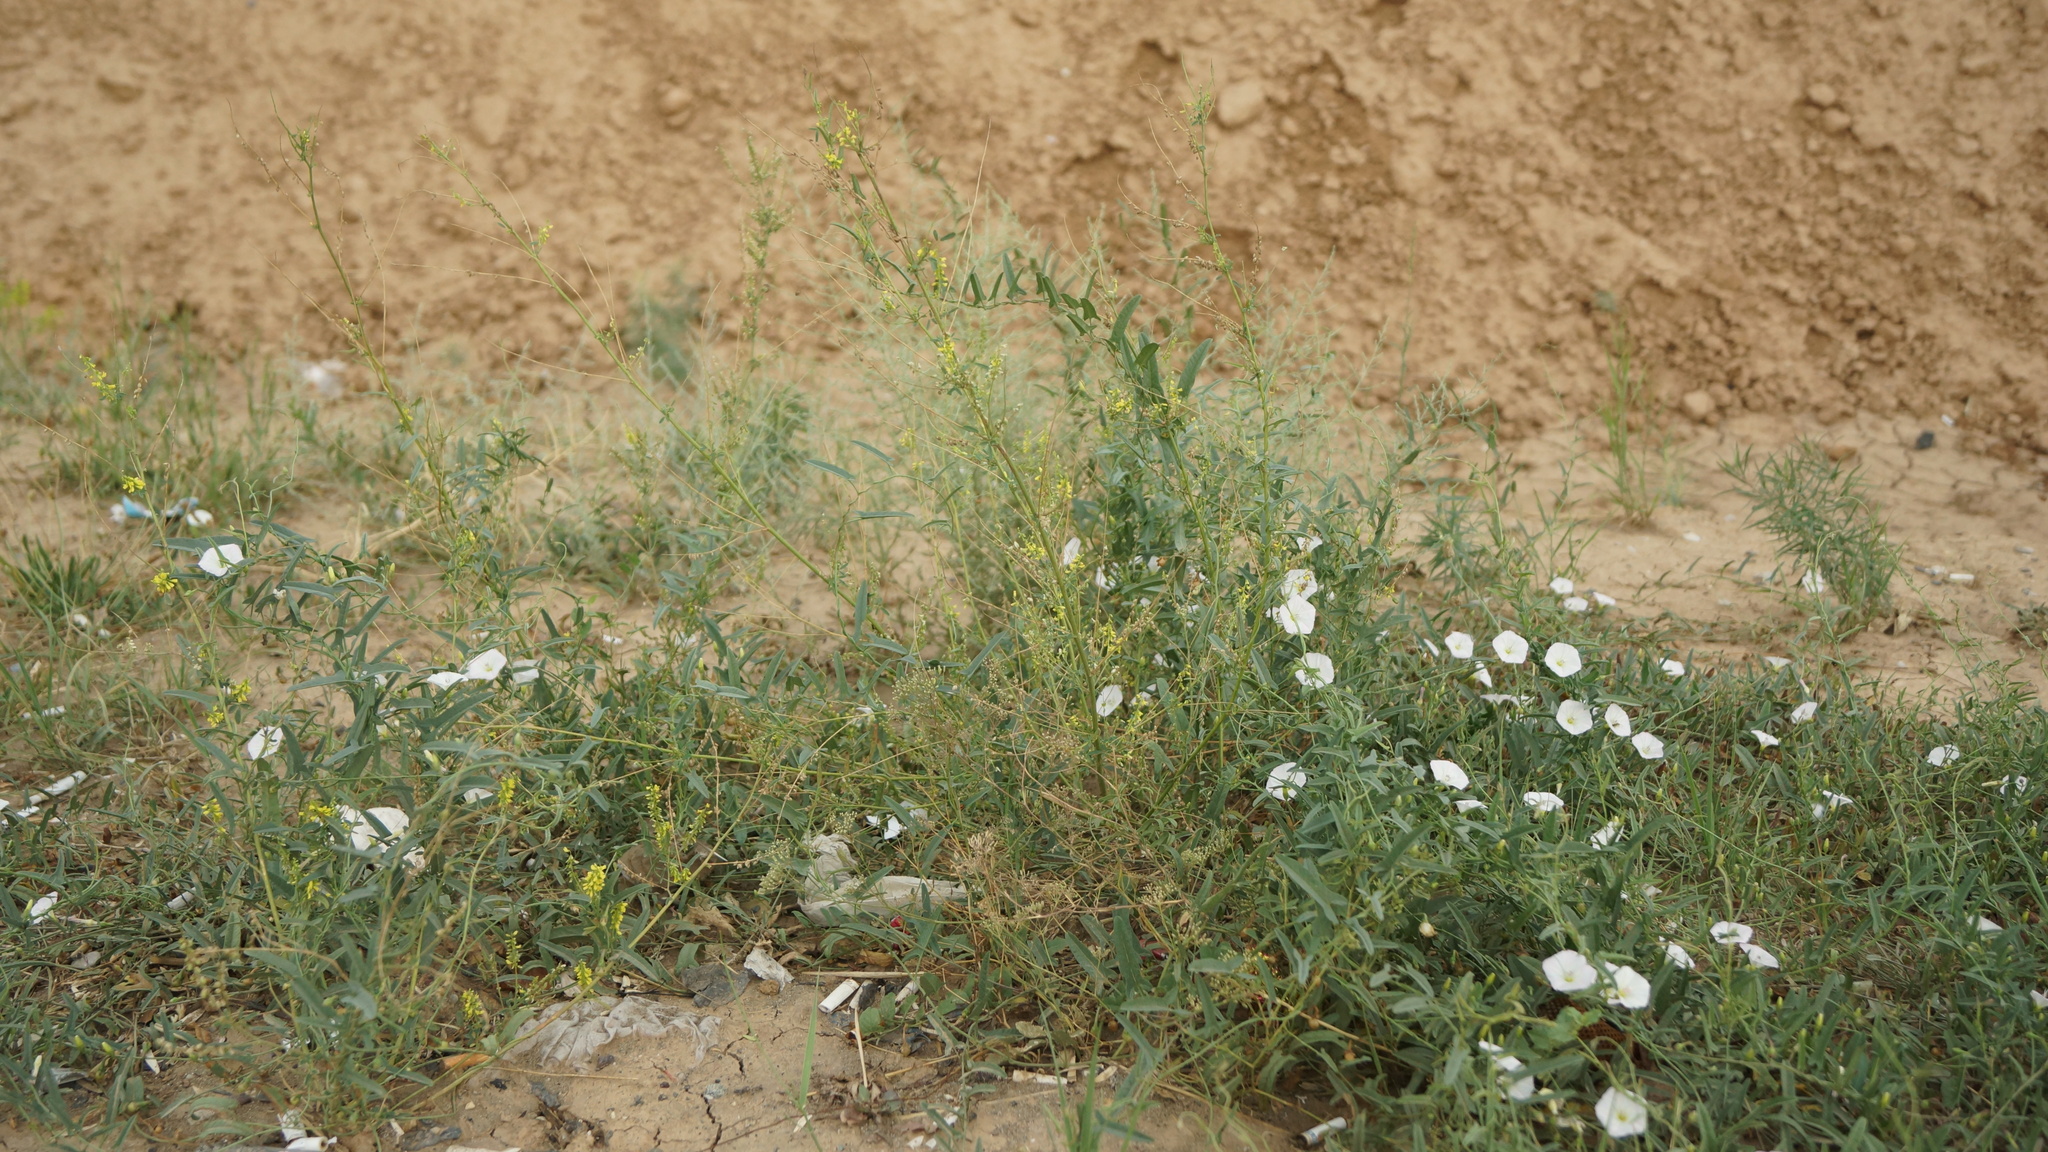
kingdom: Plantae
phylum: Tracheophyta
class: Magnoliopsida
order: Fabales
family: Fabaceae
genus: Melilotus
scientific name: Melilotus officinalis
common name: Sweetclover
